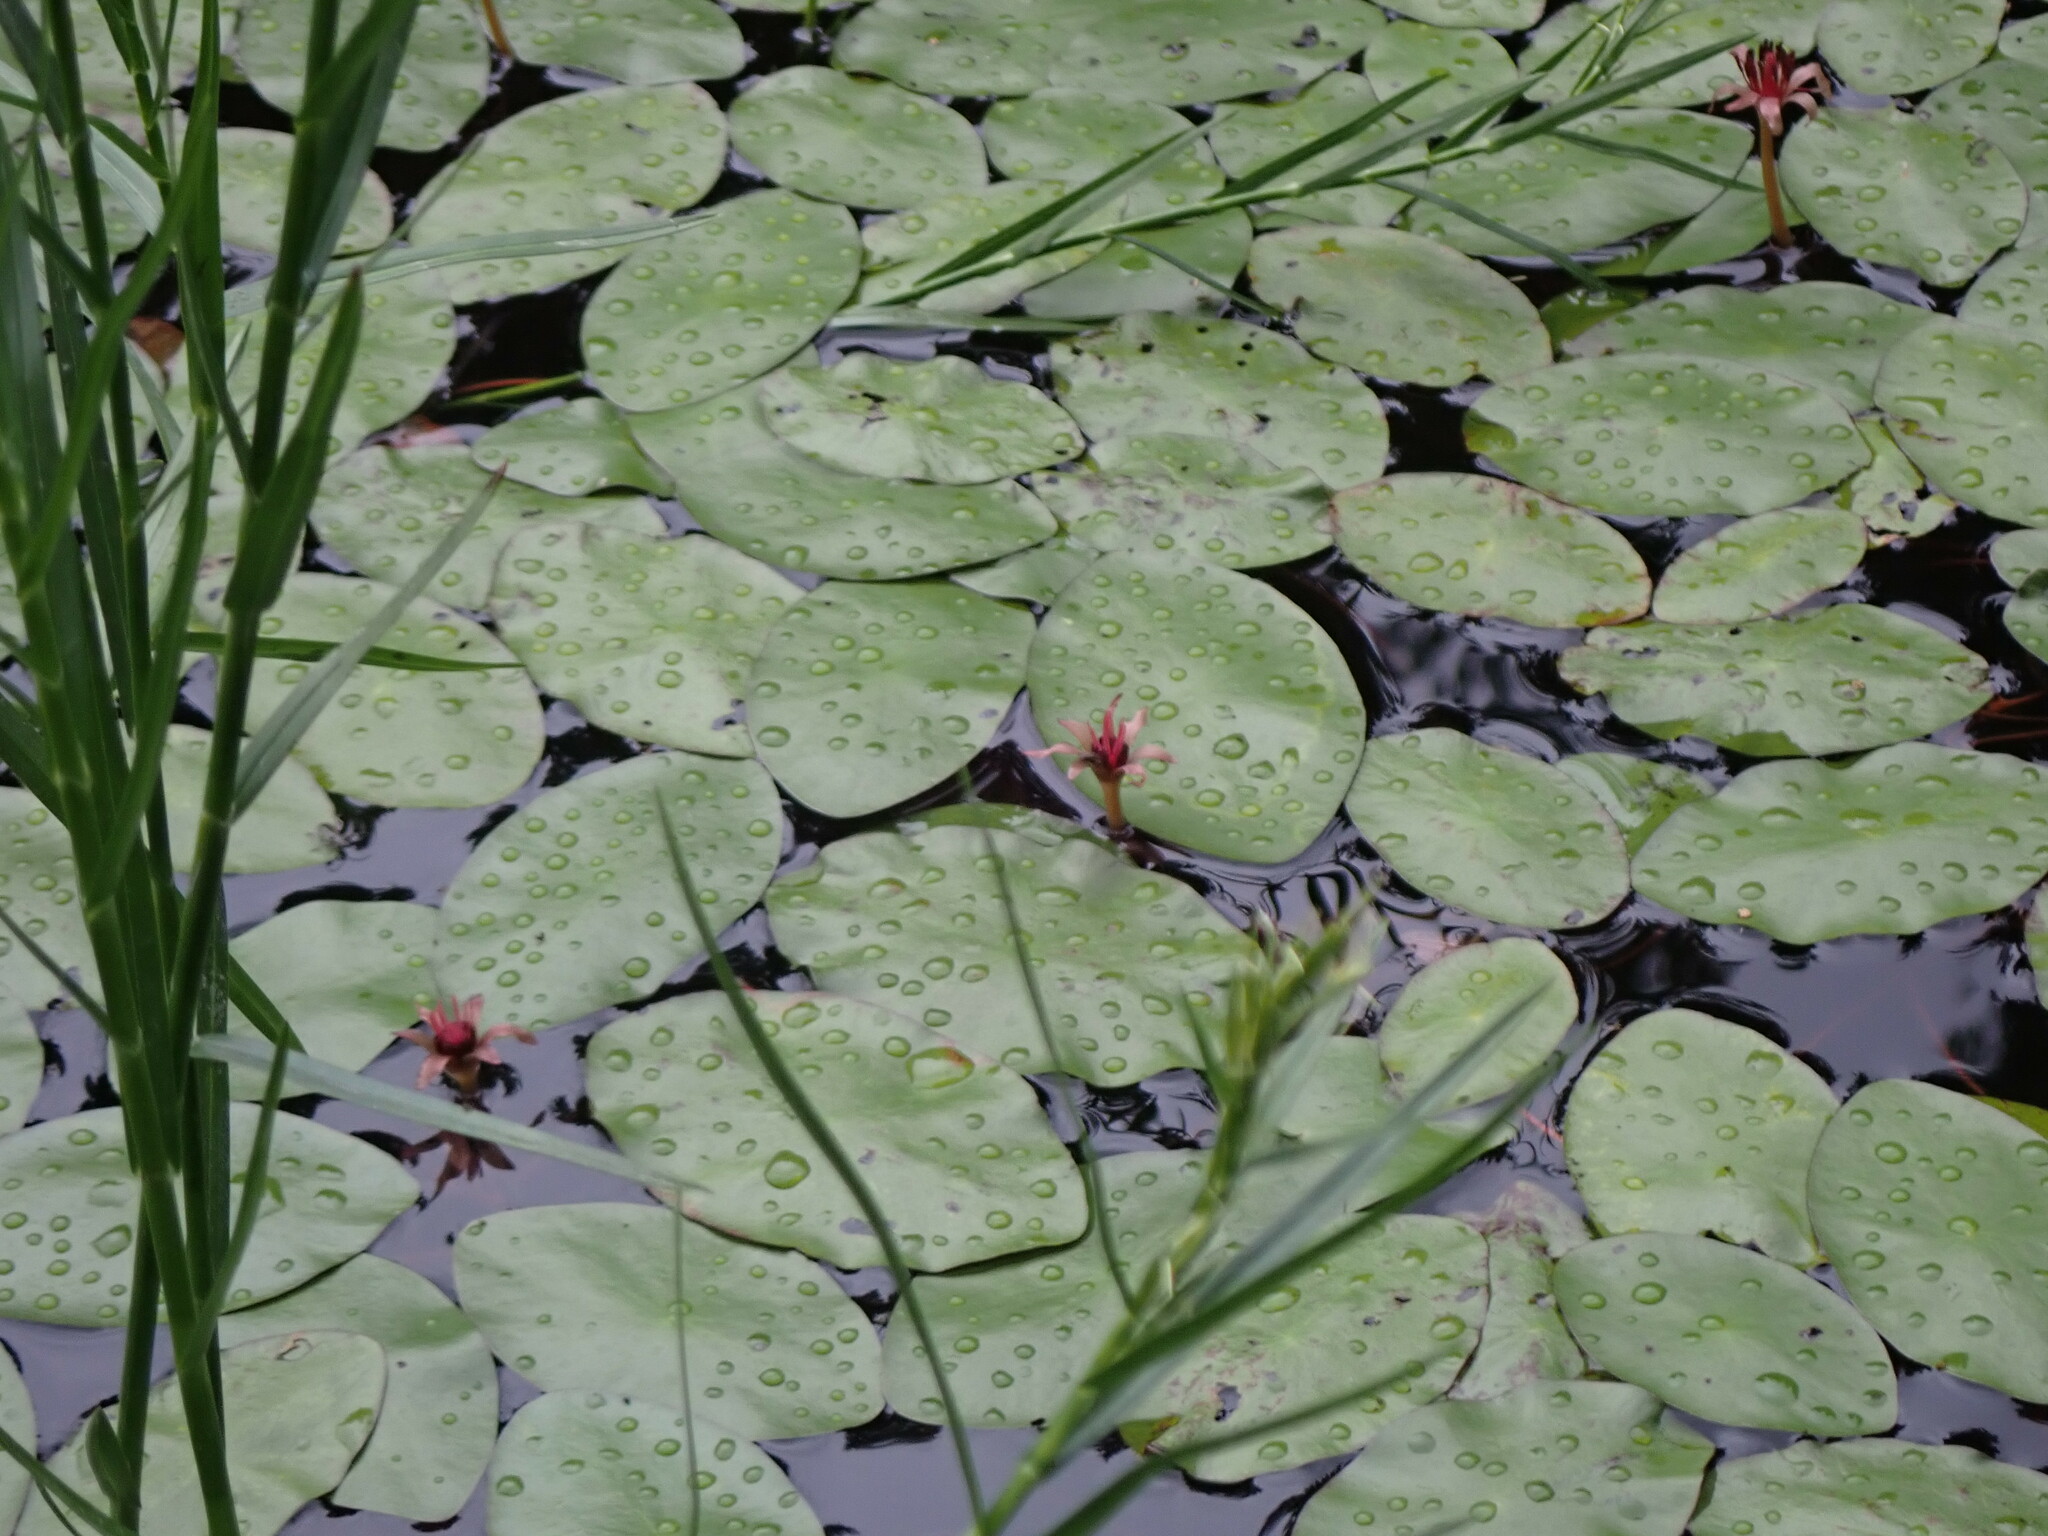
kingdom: Plantae
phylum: Tracheophyta
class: Magnoliopsida
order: Nymphaeales
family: Cabombaceae
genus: Brasenia
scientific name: Brasenia schreberi
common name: Water-shield
